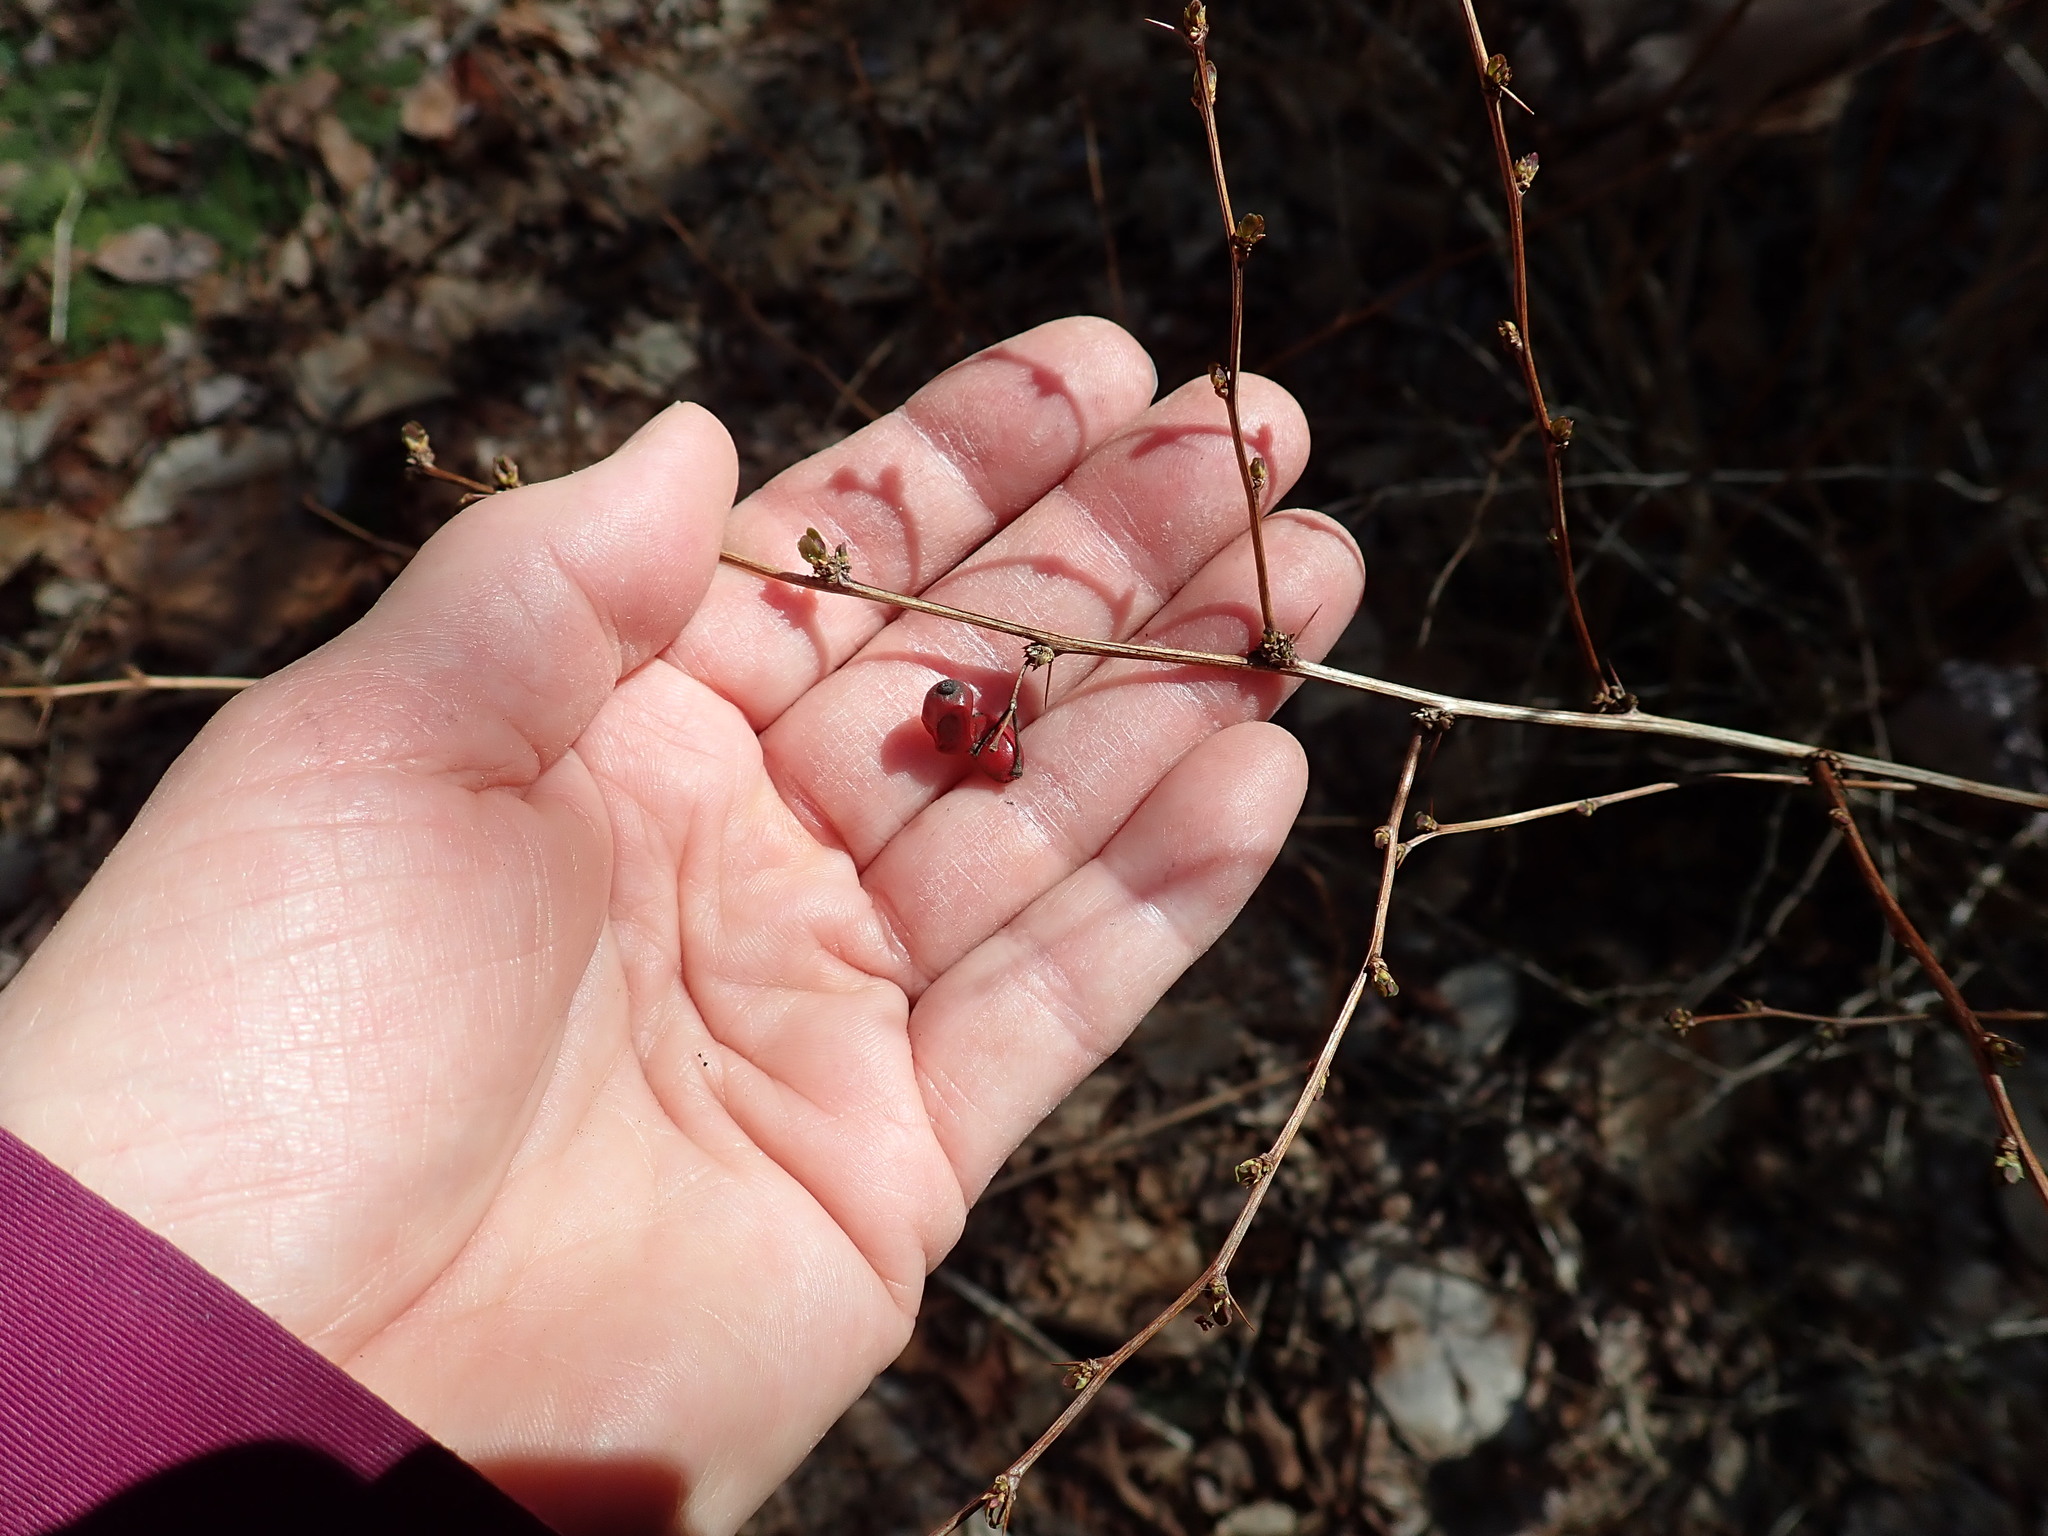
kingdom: Plantae
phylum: Tracheophyta
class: Magnoliopsida
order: Ranunculales
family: Berberidaceae
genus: Berberis
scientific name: Berberis thunbergii
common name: Japanese barberry
